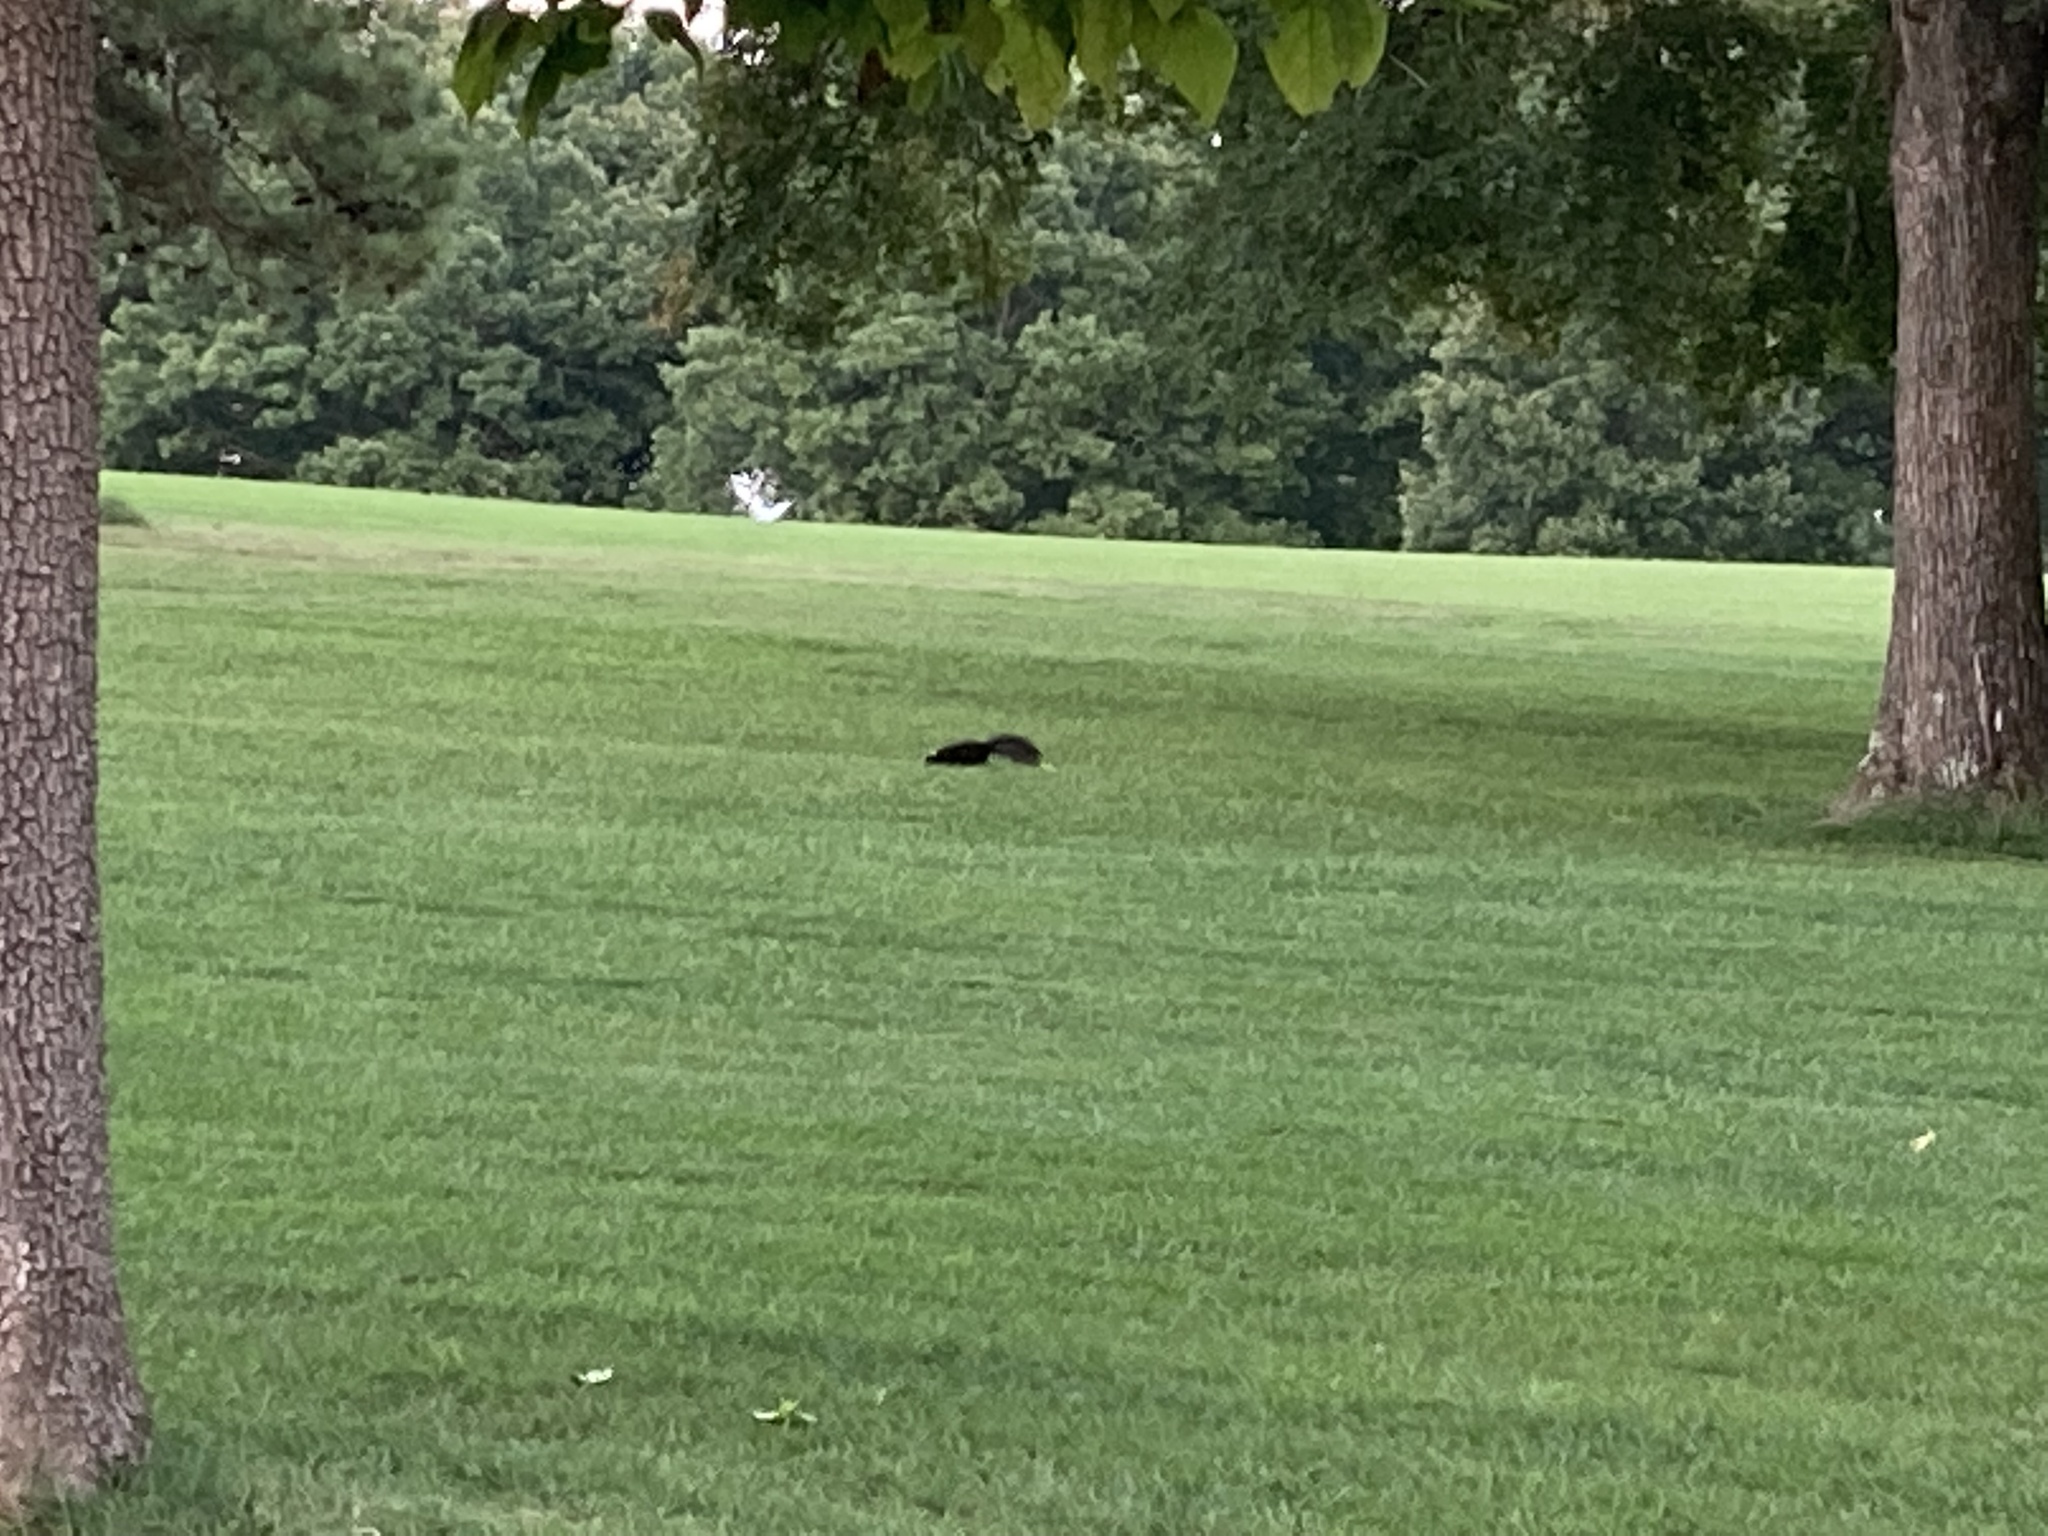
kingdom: Animalia
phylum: Chordata
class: Mammalia
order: Carnivora
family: Mephitidae
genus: Mephitis
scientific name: Mephitis mephitis
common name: Striped skunk
